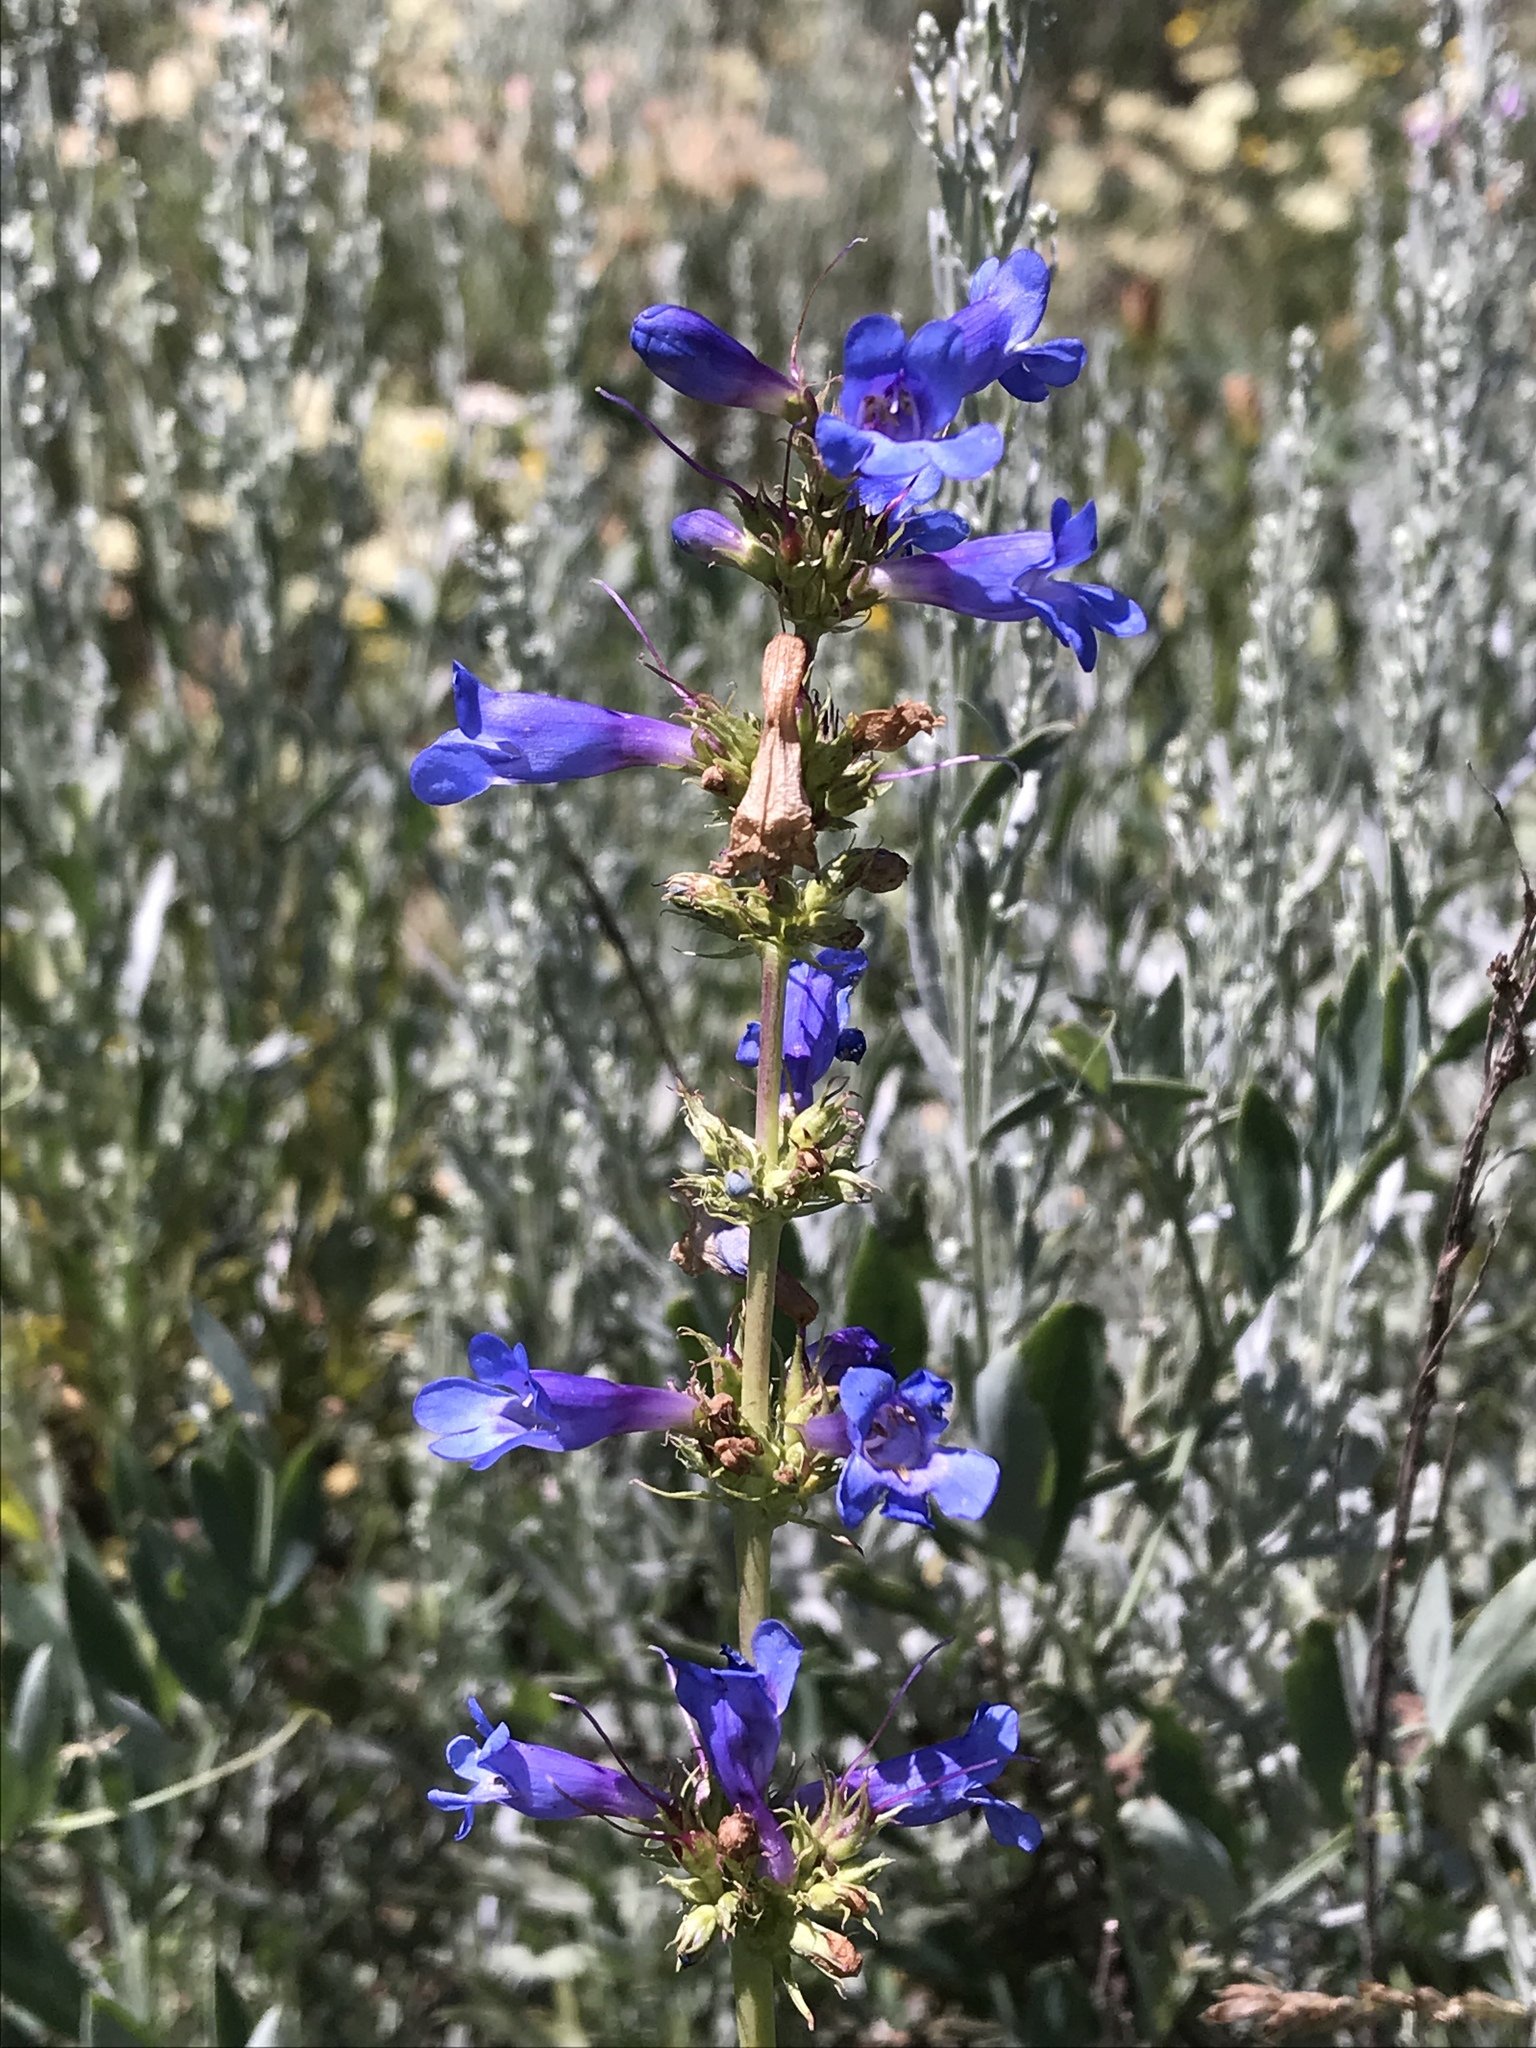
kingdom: Plantae
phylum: Tracheophyta
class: Magnoliopsida
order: Lamiales
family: Plantaginaceae
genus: Penstemon
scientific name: Penstemon cyananthus
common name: Wasatch penstemon
